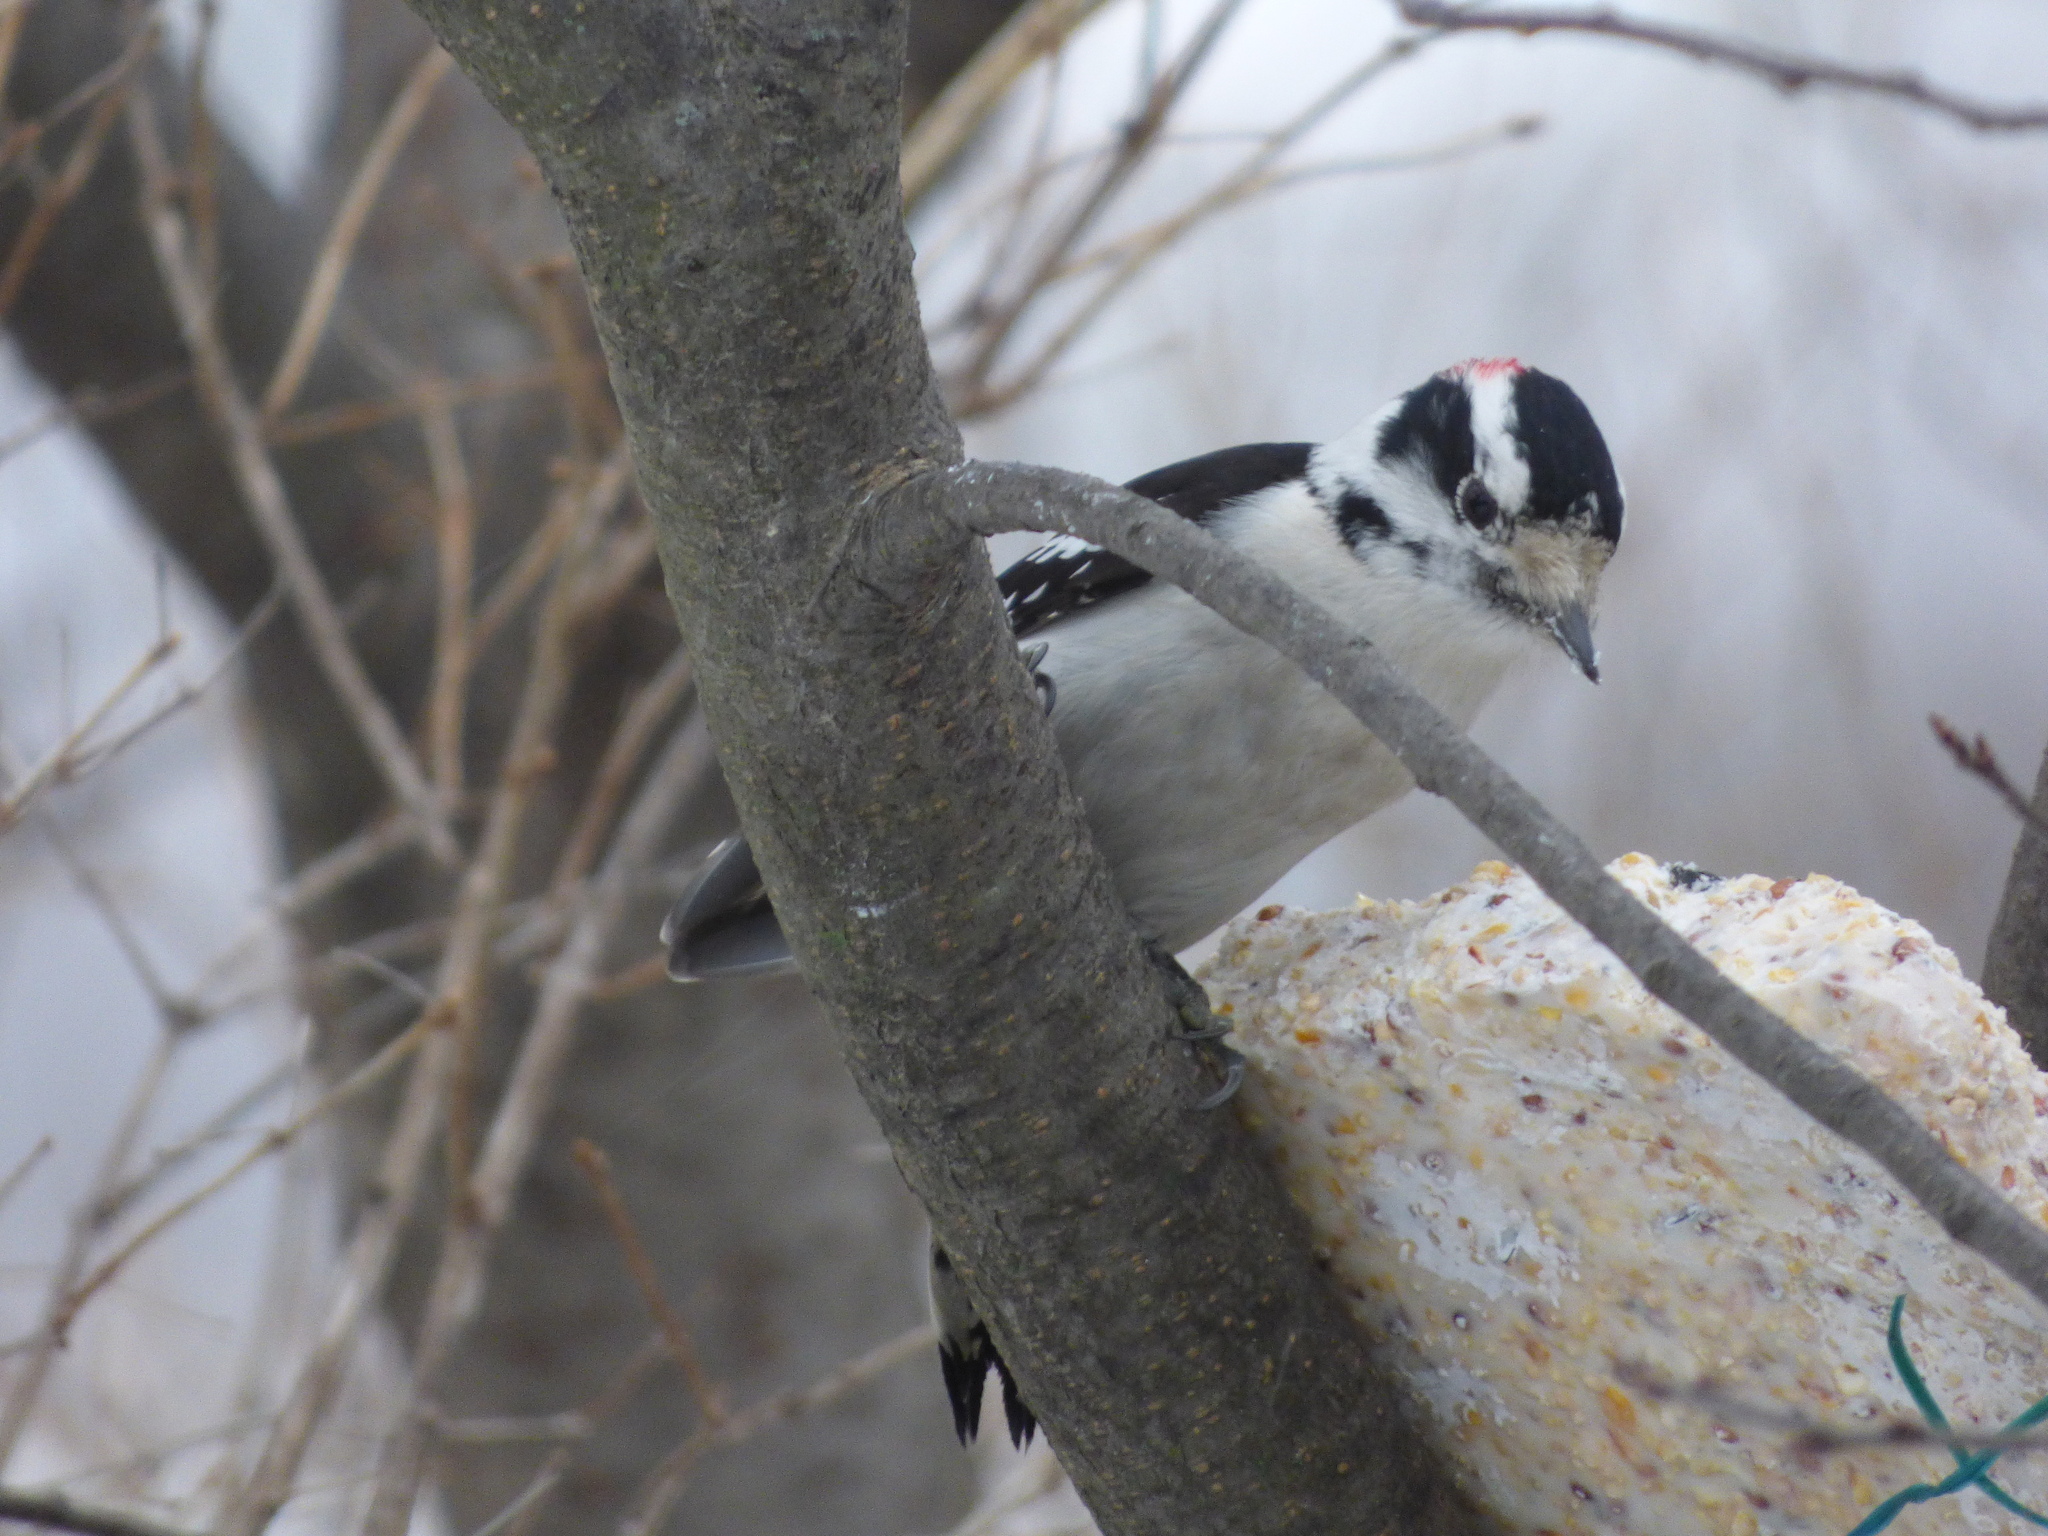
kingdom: Animalia
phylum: Chordata
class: Aves
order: Piciformes
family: Picidae
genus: Dryobates
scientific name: Dryobates pubescens
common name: Downy woodpecker
